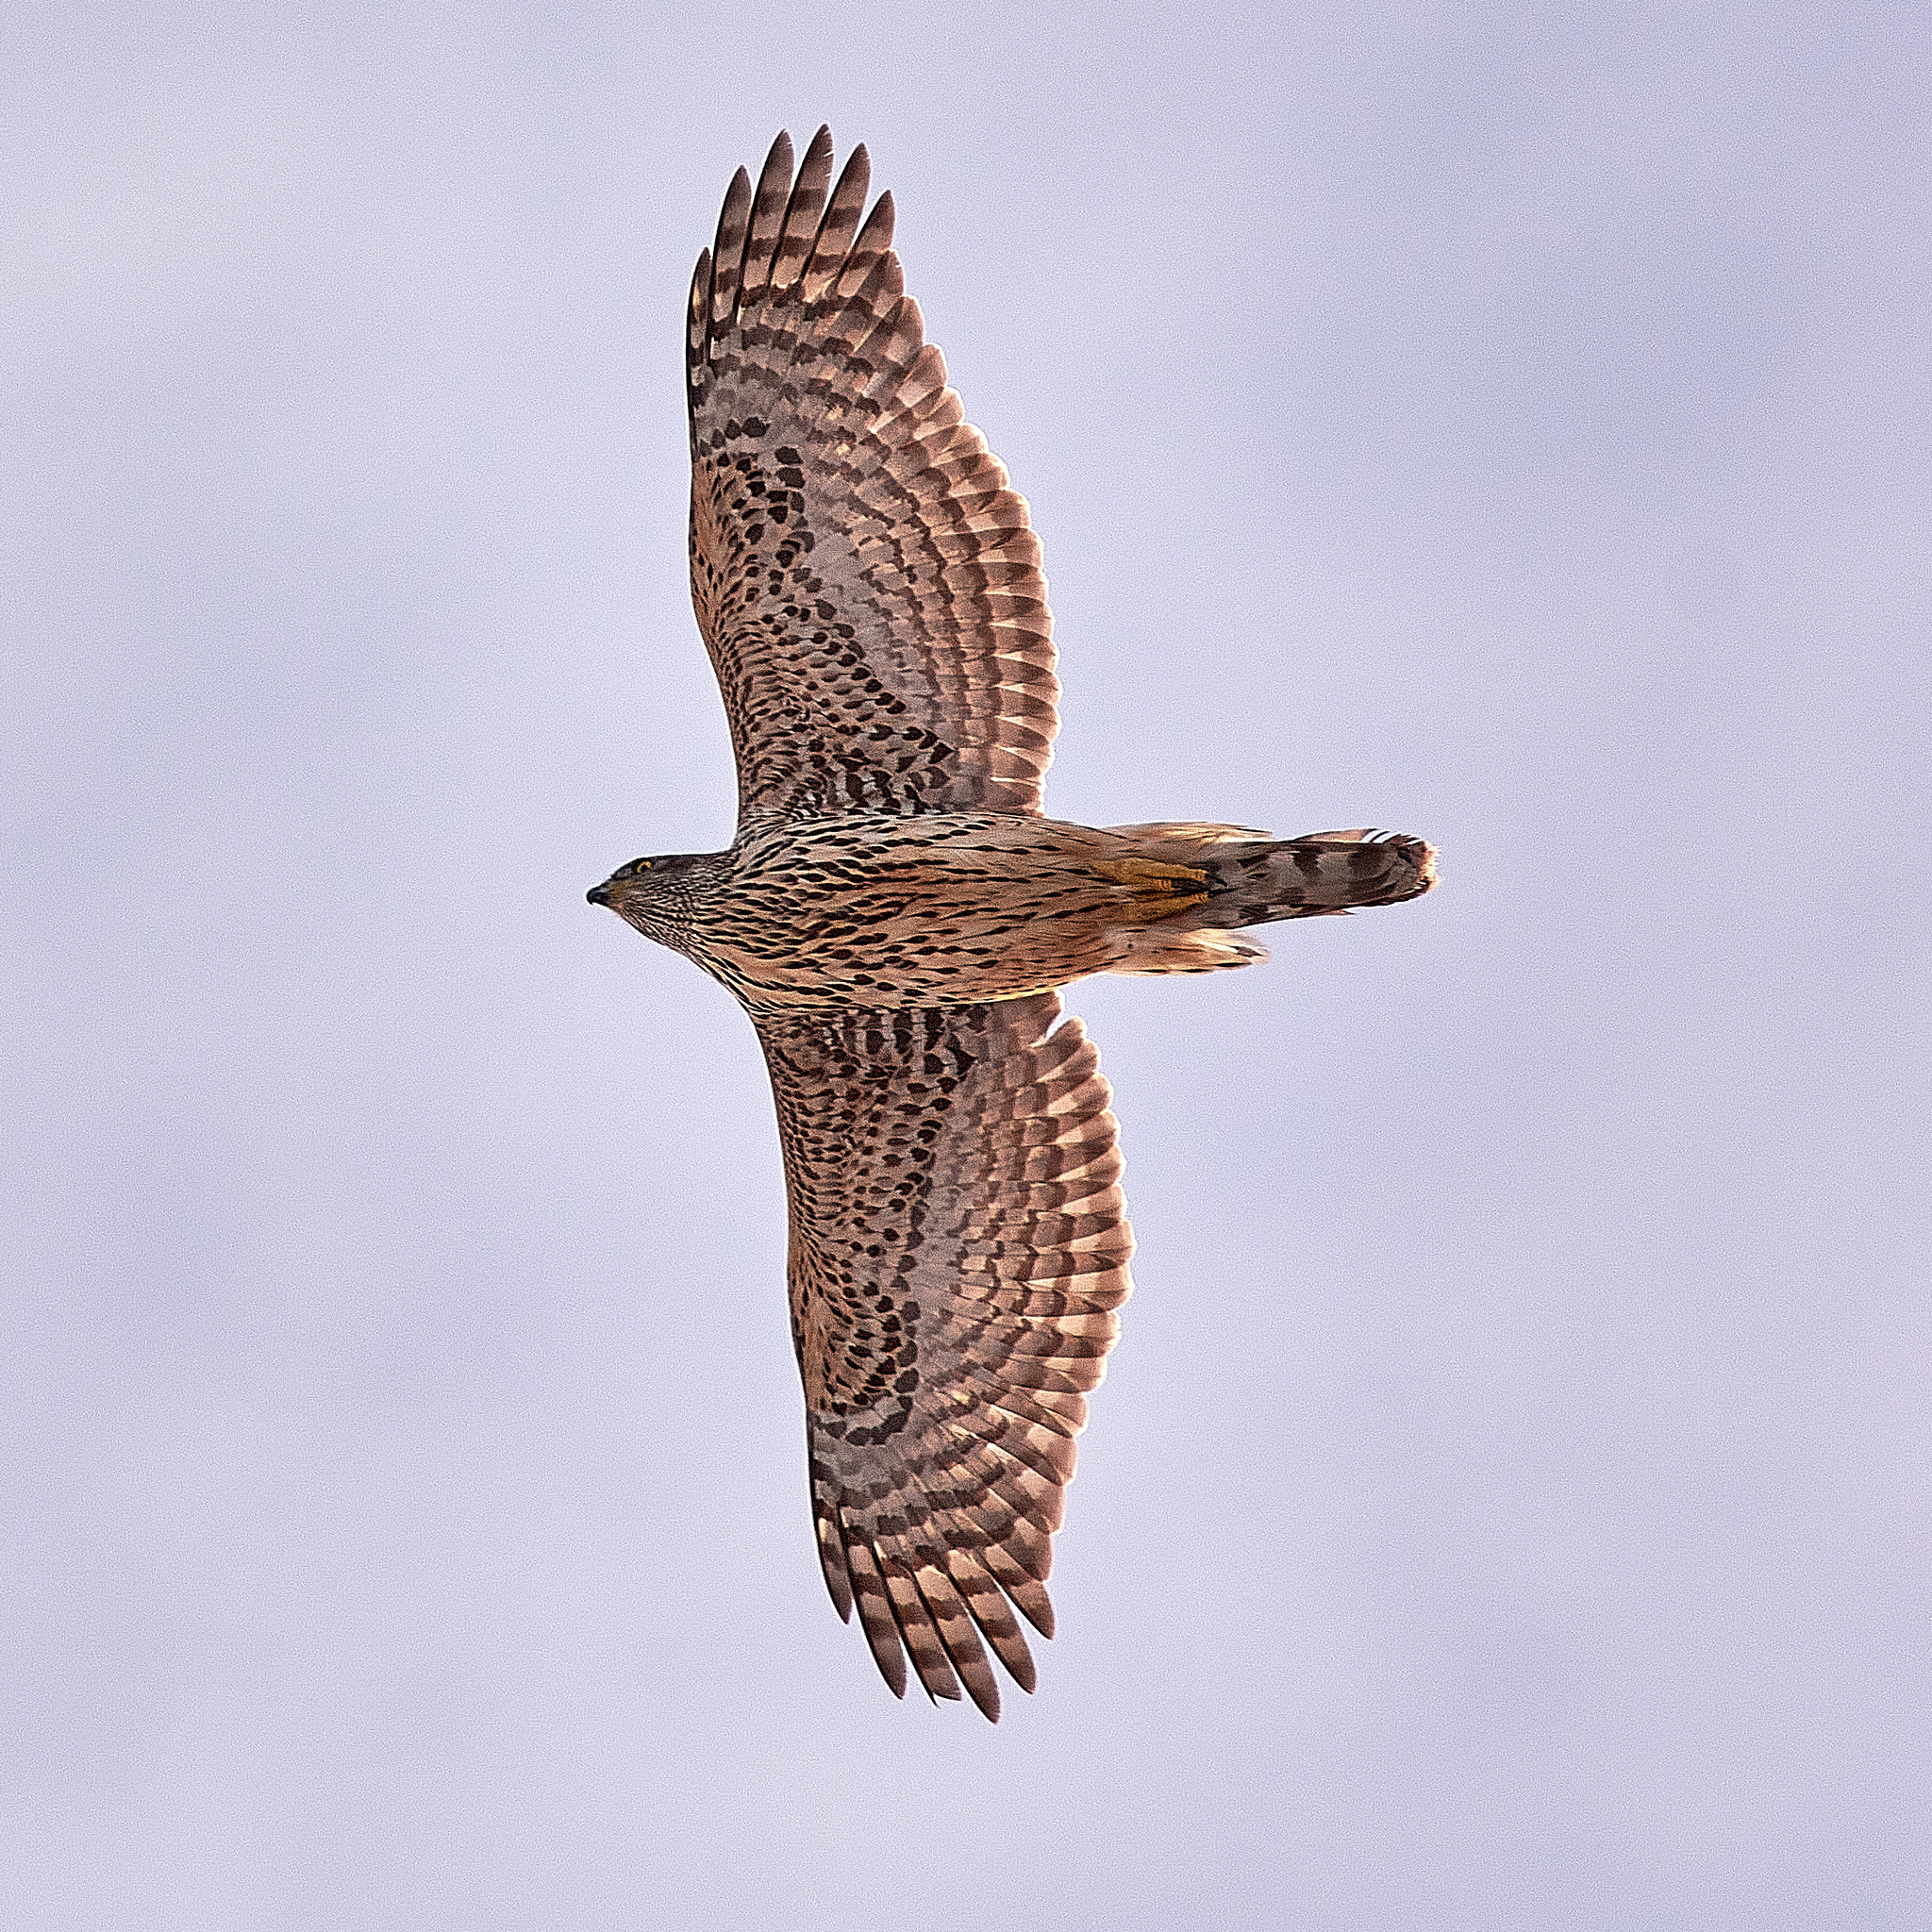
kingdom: Animalia
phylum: Chordata
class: Aves
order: Accipitriformes
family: Accipitridae
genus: Accipiter
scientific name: Accipiter gentilis
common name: Northern goshawk
